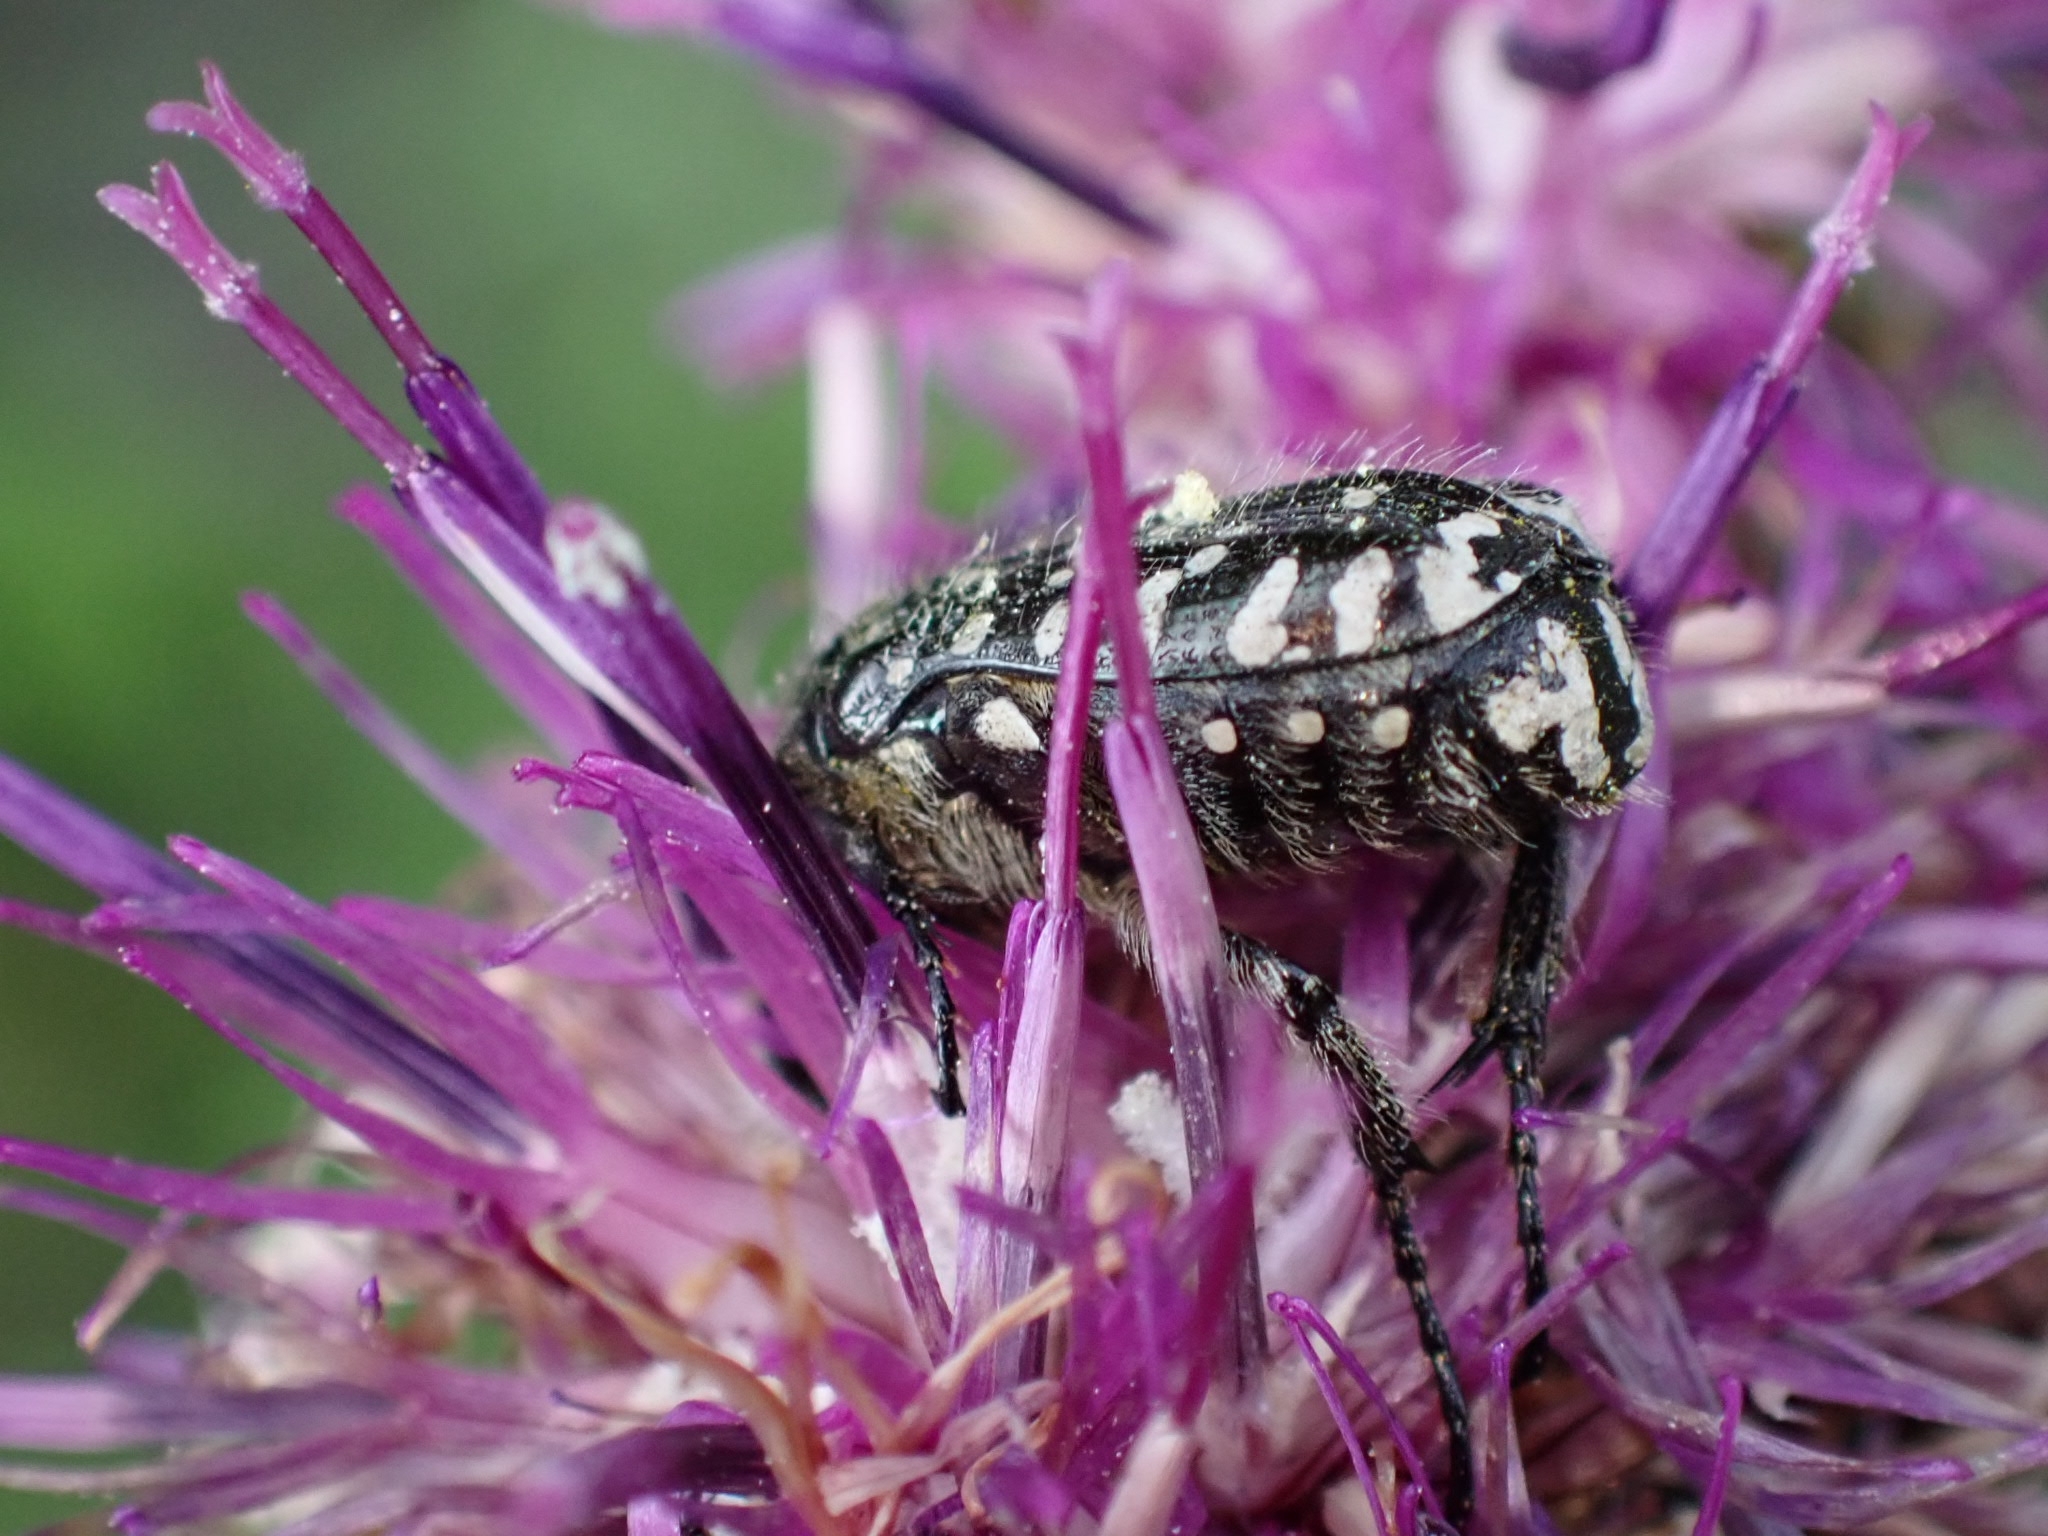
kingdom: Animalia
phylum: Arthropoda
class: Insecta
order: Coleoptera
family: Scarabaeidae
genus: Oxythyrea
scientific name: Oxythyrea funesta
